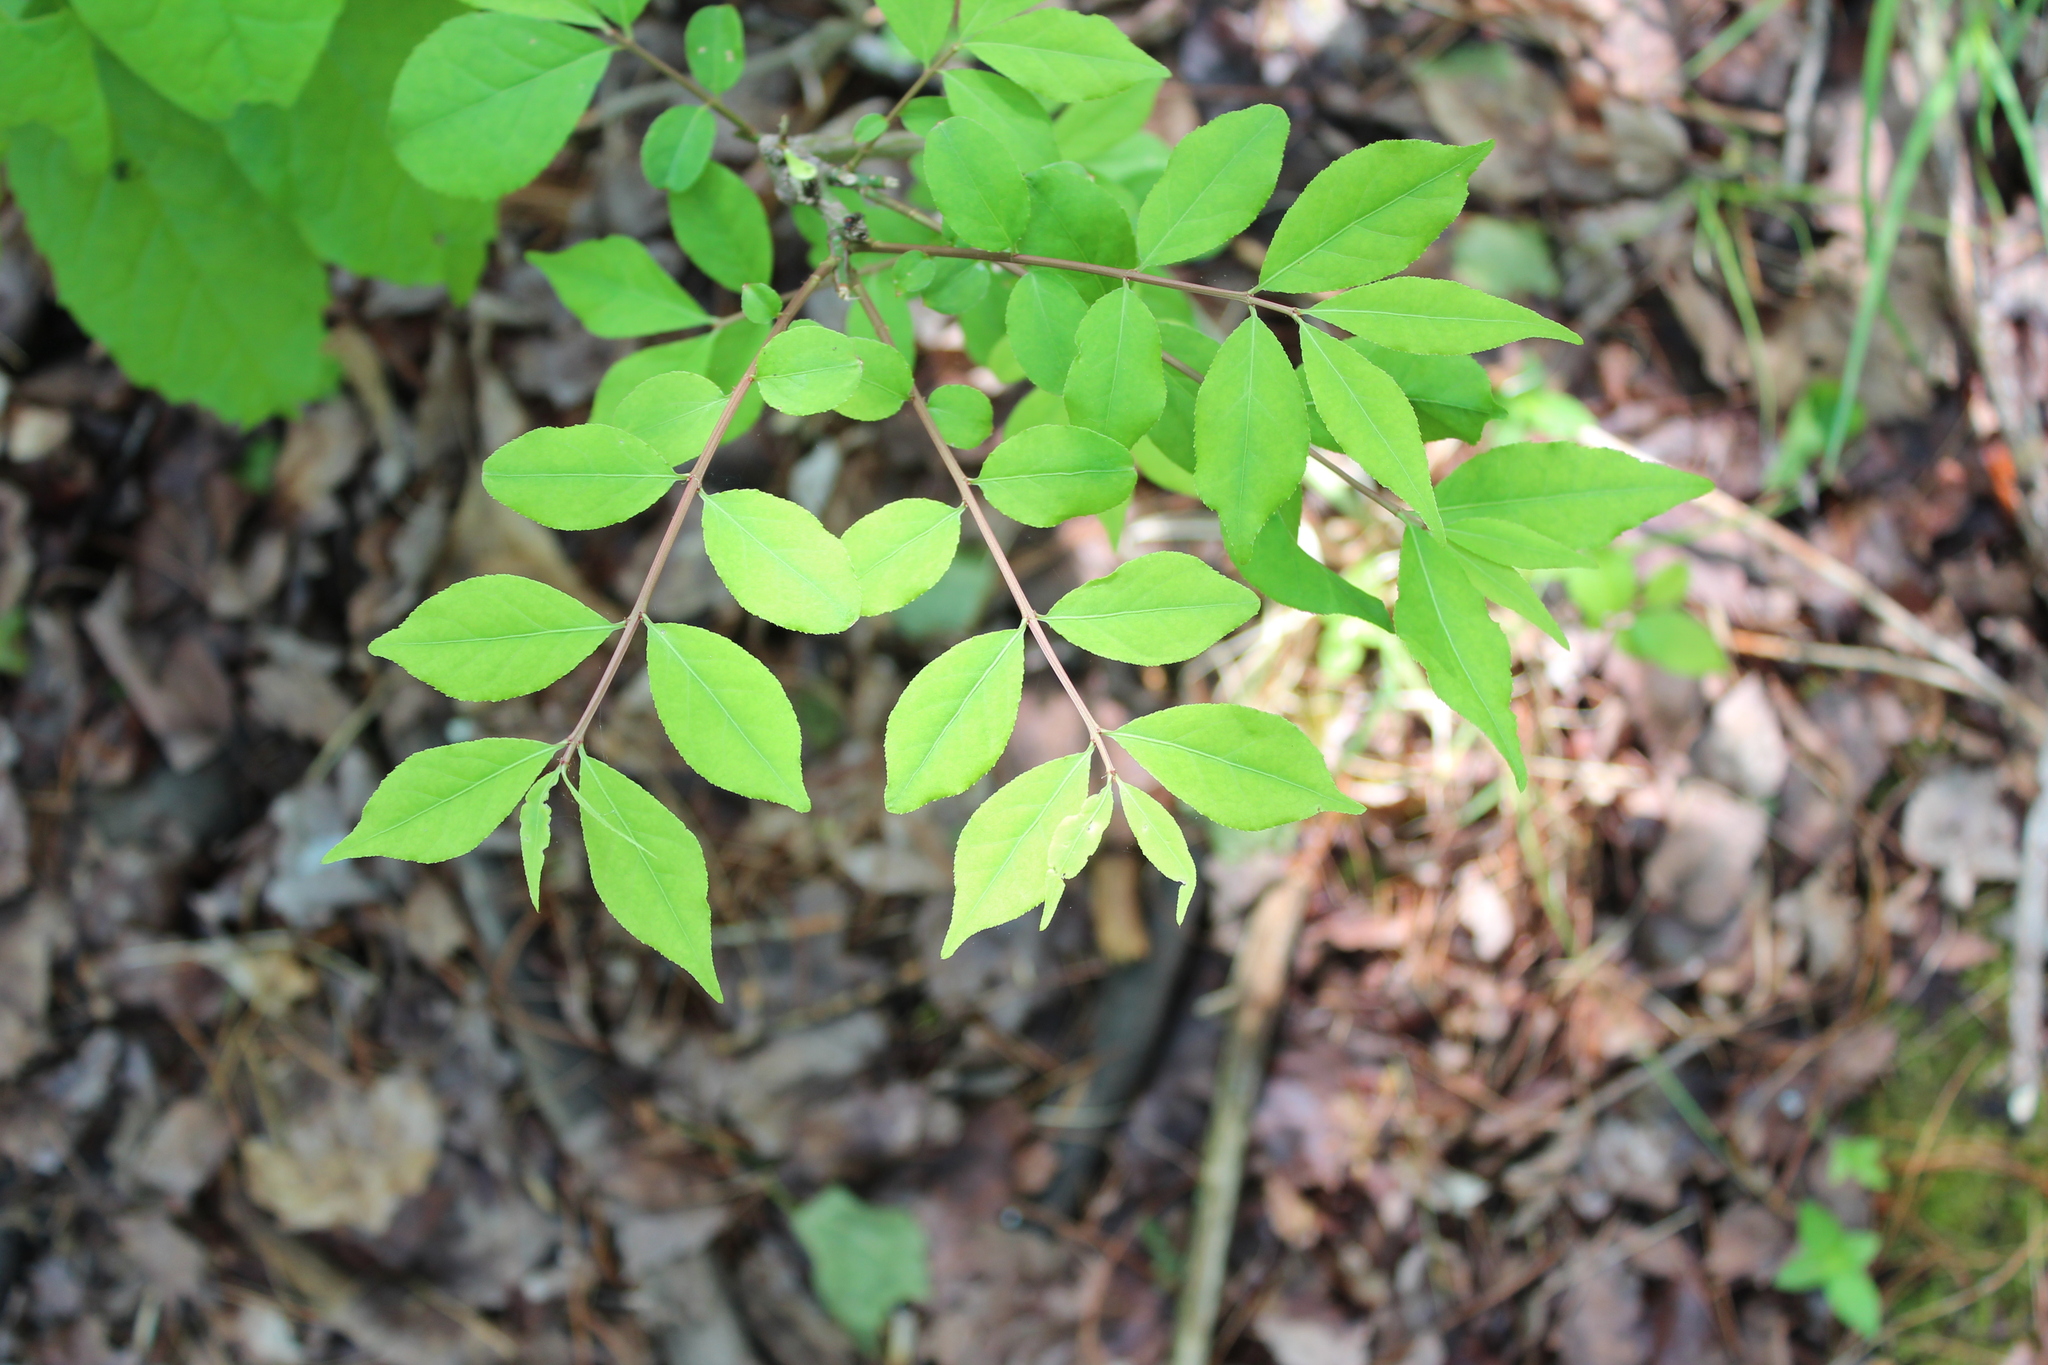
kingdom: Plantae
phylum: Tracheophyta
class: Magnoliopsida
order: Celastrales
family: Celastraceae
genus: Euonymus
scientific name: Euonymus alatus
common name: Winged euonymus
